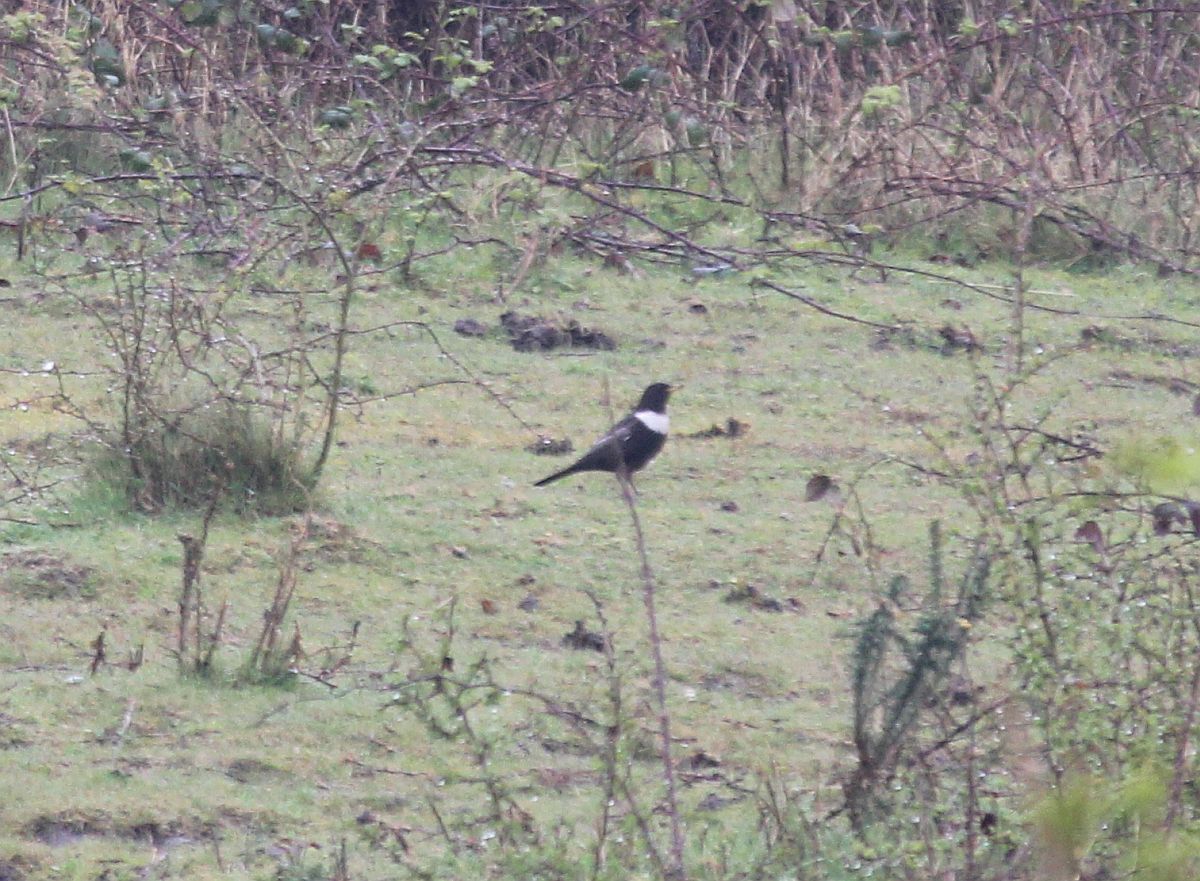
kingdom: Animalia
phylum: Chordata
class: Aves
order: Passeriformes
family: Turdidae
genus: Turdus
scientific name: Turdus torquatus
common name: Ring ouzel
